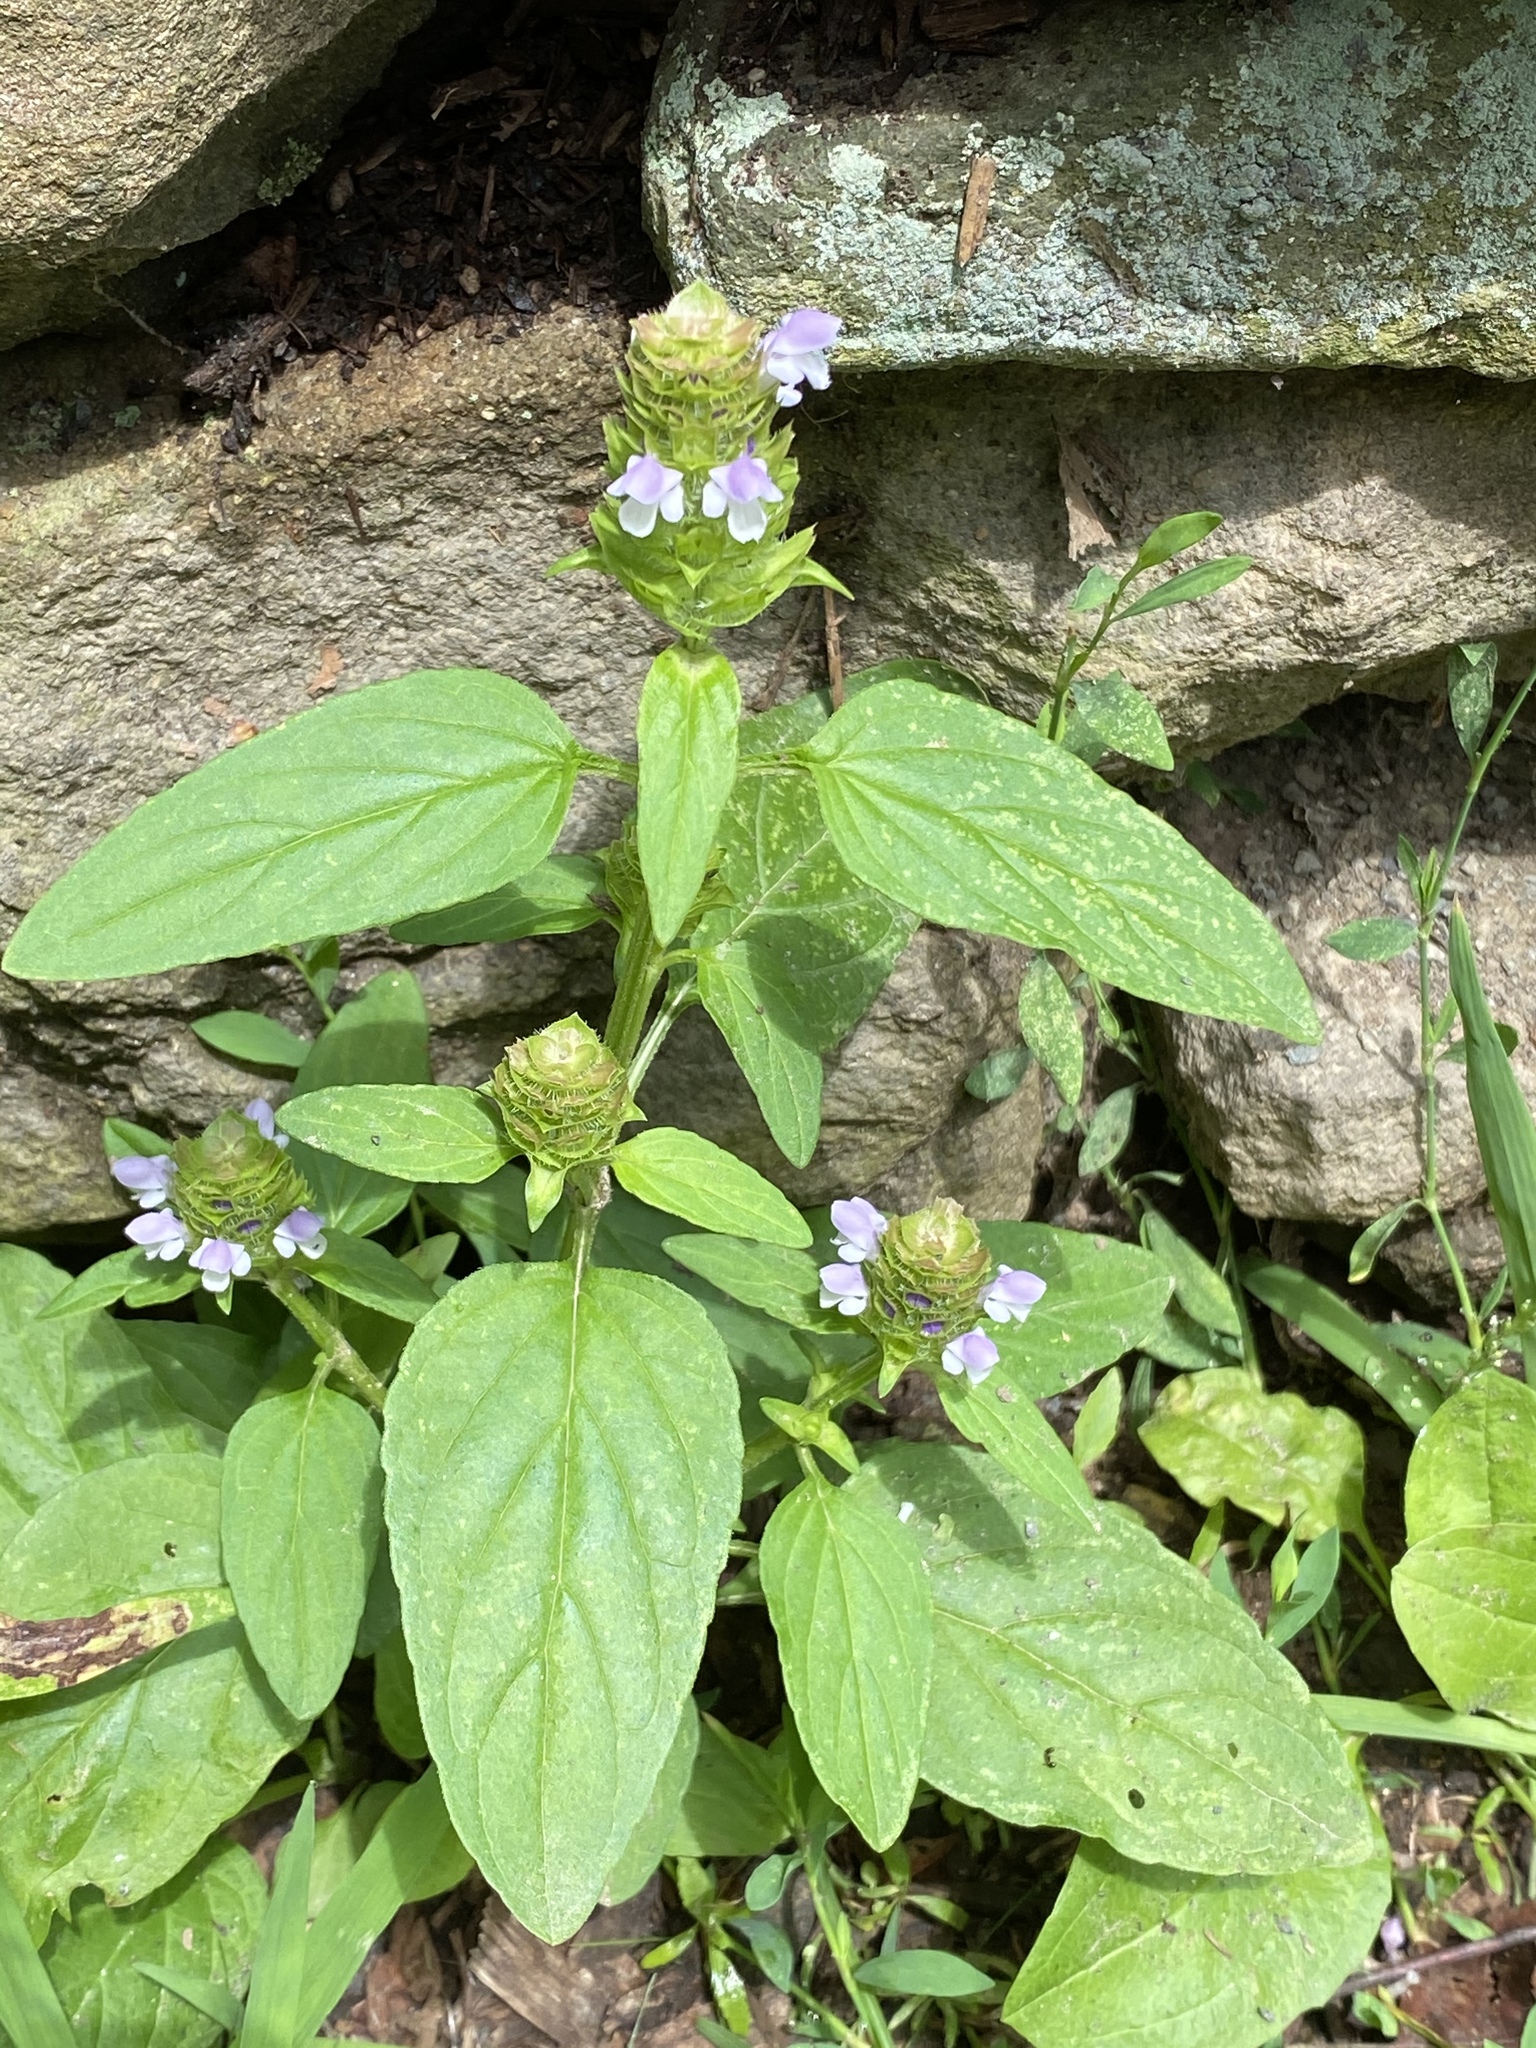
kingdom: Plantae
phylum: Tracheophyta
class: Magnoliopsida
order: Lamiales
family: Lamiaceae
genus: Prunella
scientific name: Prunella vulgaris
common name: Heal-all
